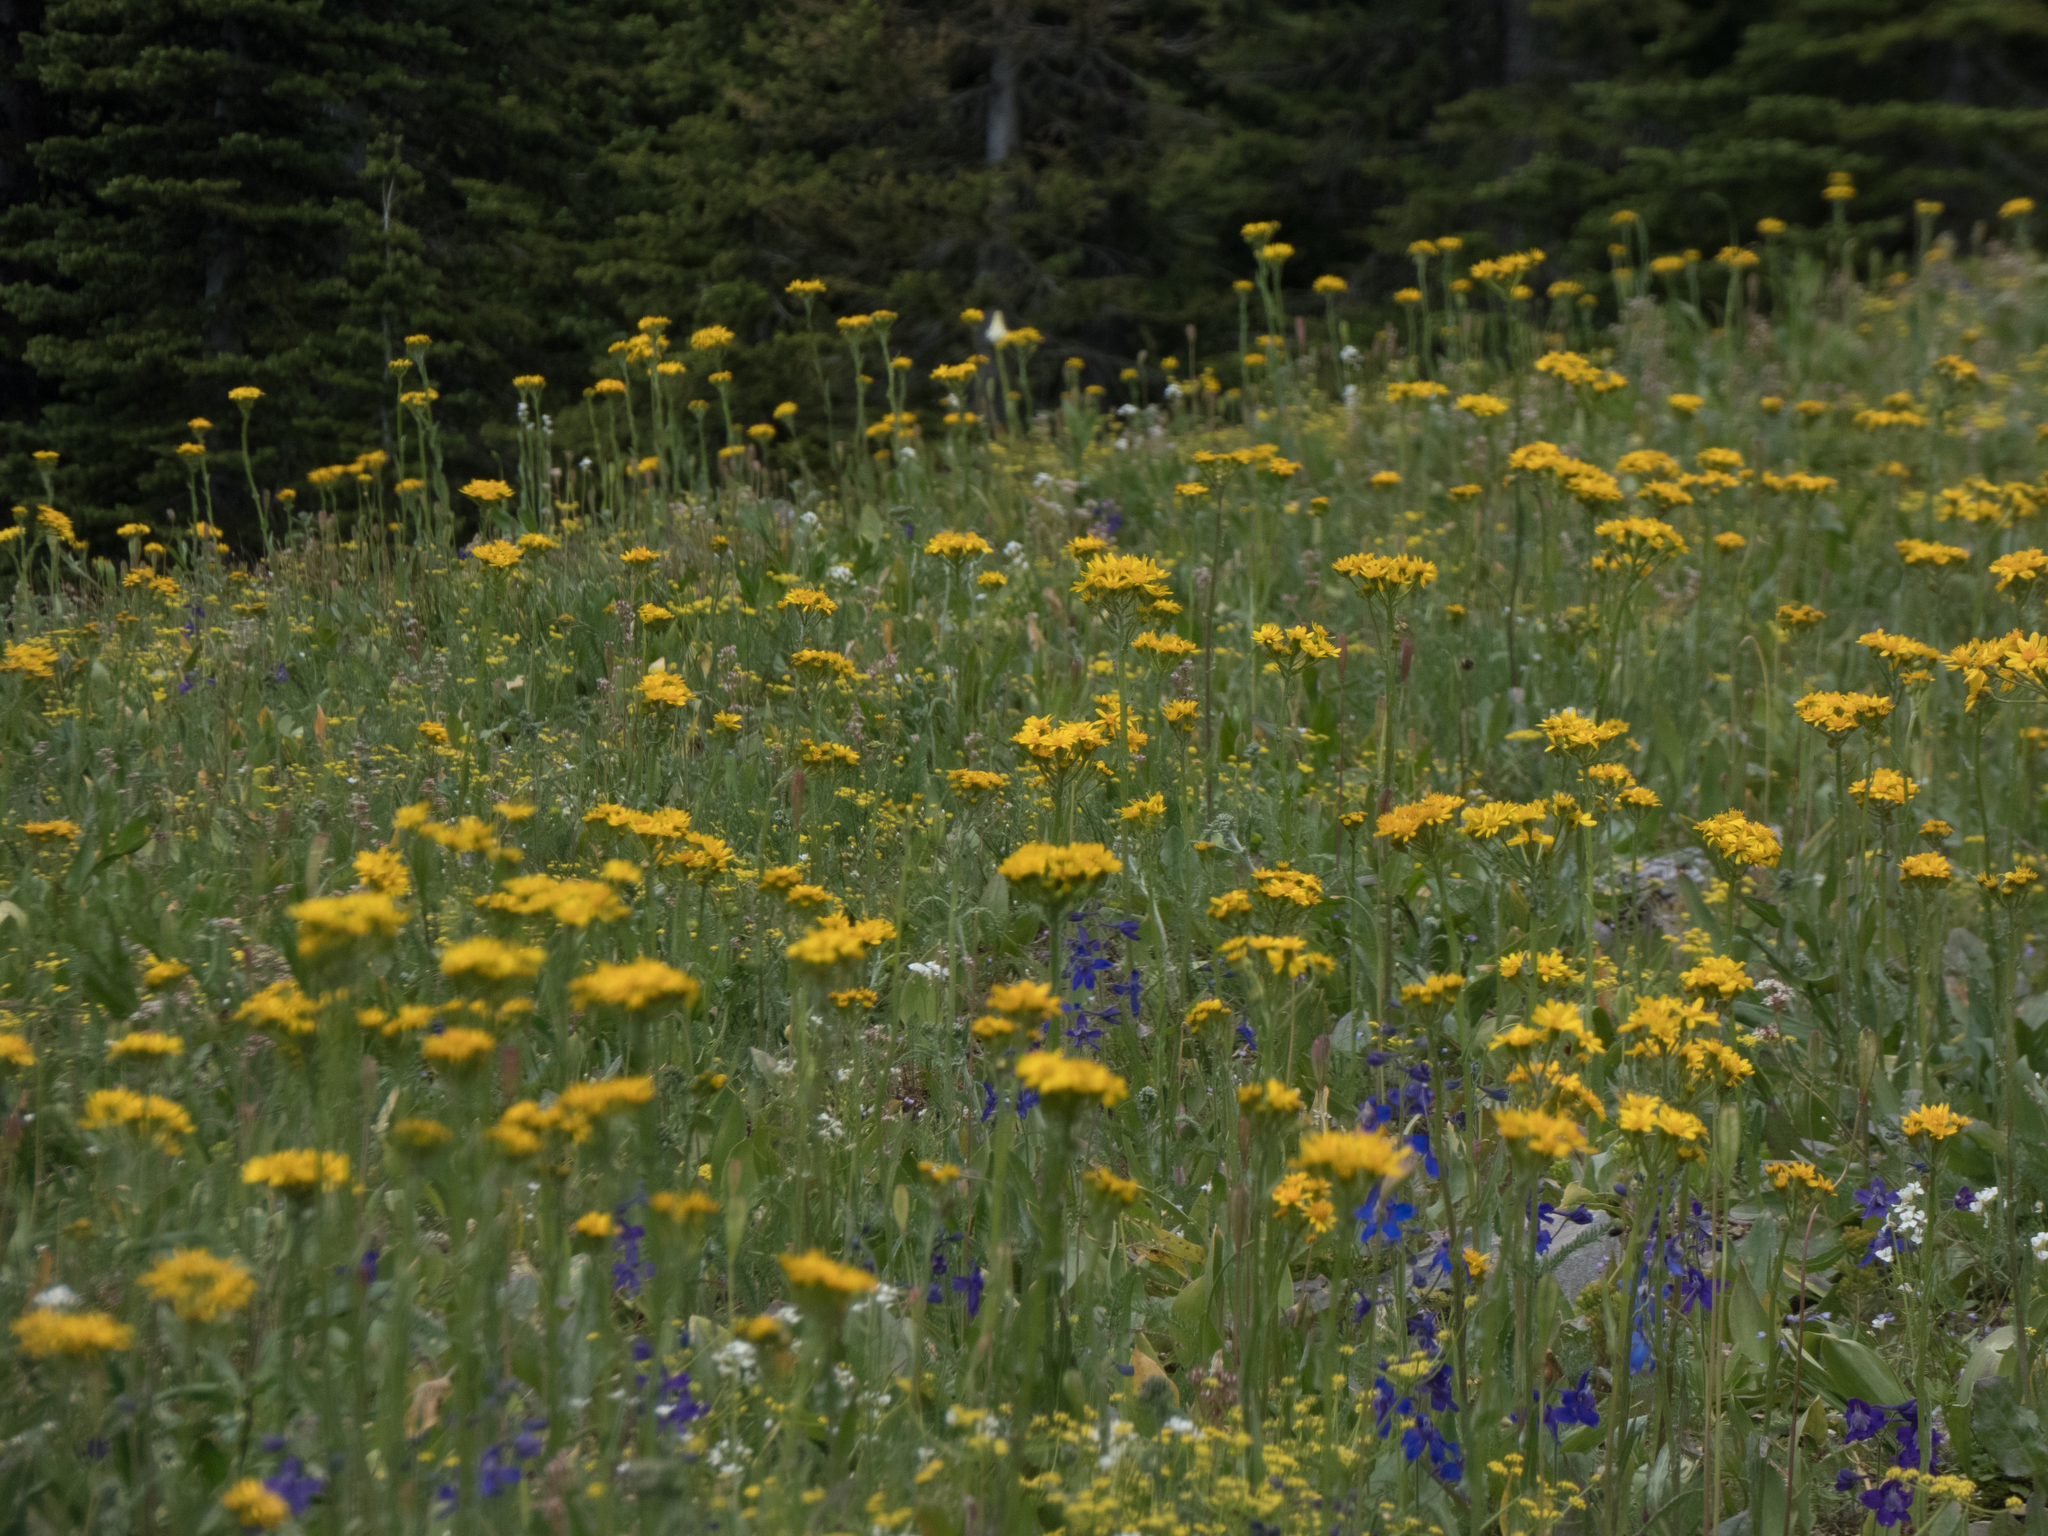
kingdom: Plantae
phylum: Tracheophyta
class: Magnoliopsida
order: Asterales
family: Asteraceae
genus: Senecio
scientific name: Senecio integerrimus
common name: Gaugeplant
